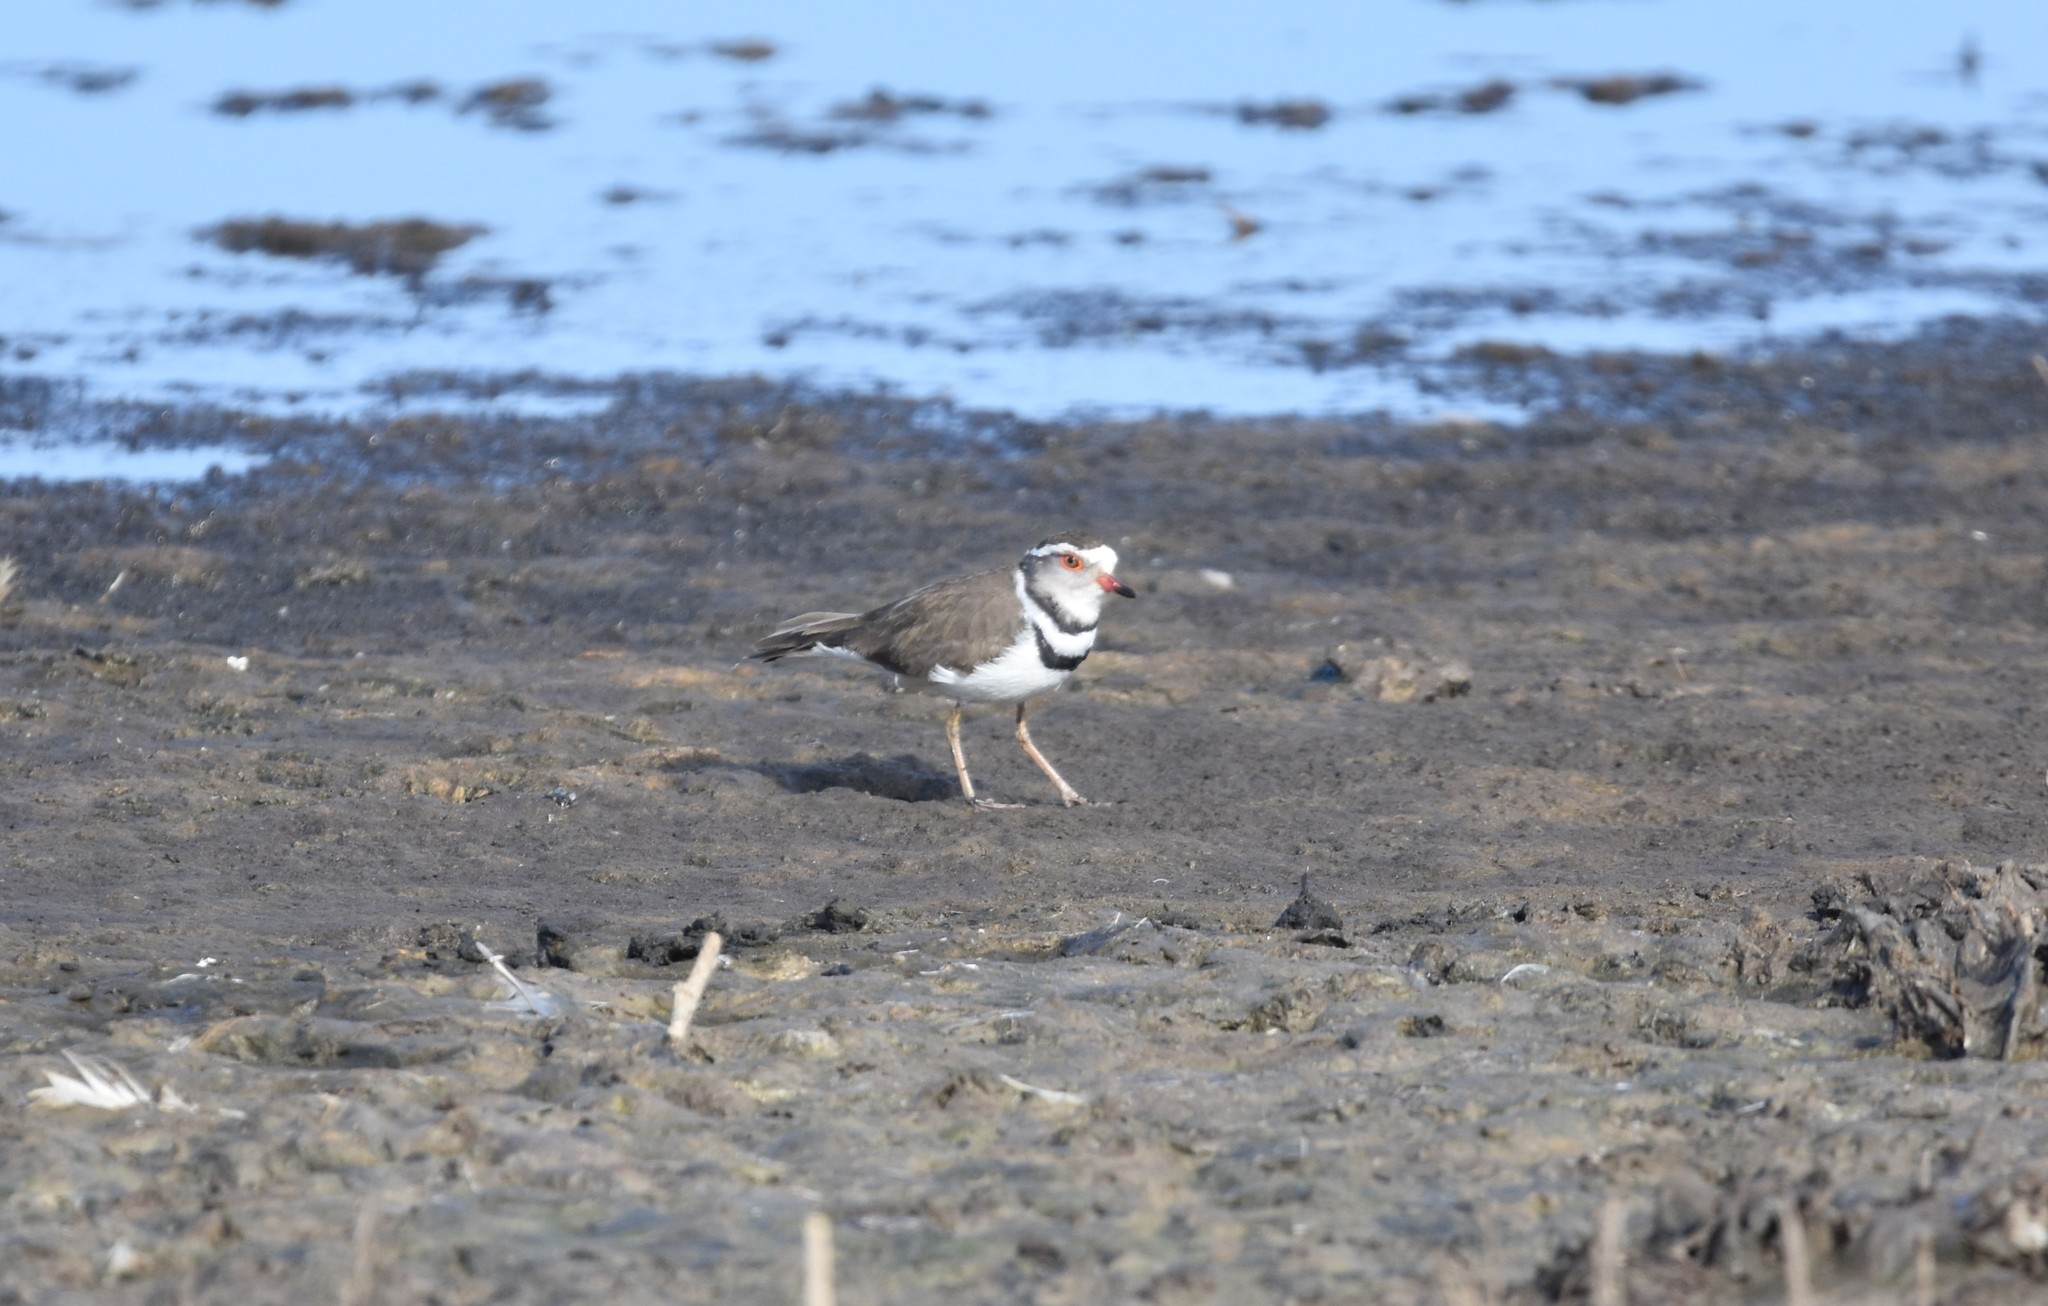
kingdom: Animalia
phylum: Chordata
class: Aves
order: Charadriiformes
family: Charadriidae
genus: Charadrius
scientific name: Charadrius tricollaris
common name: Three-banded plover
